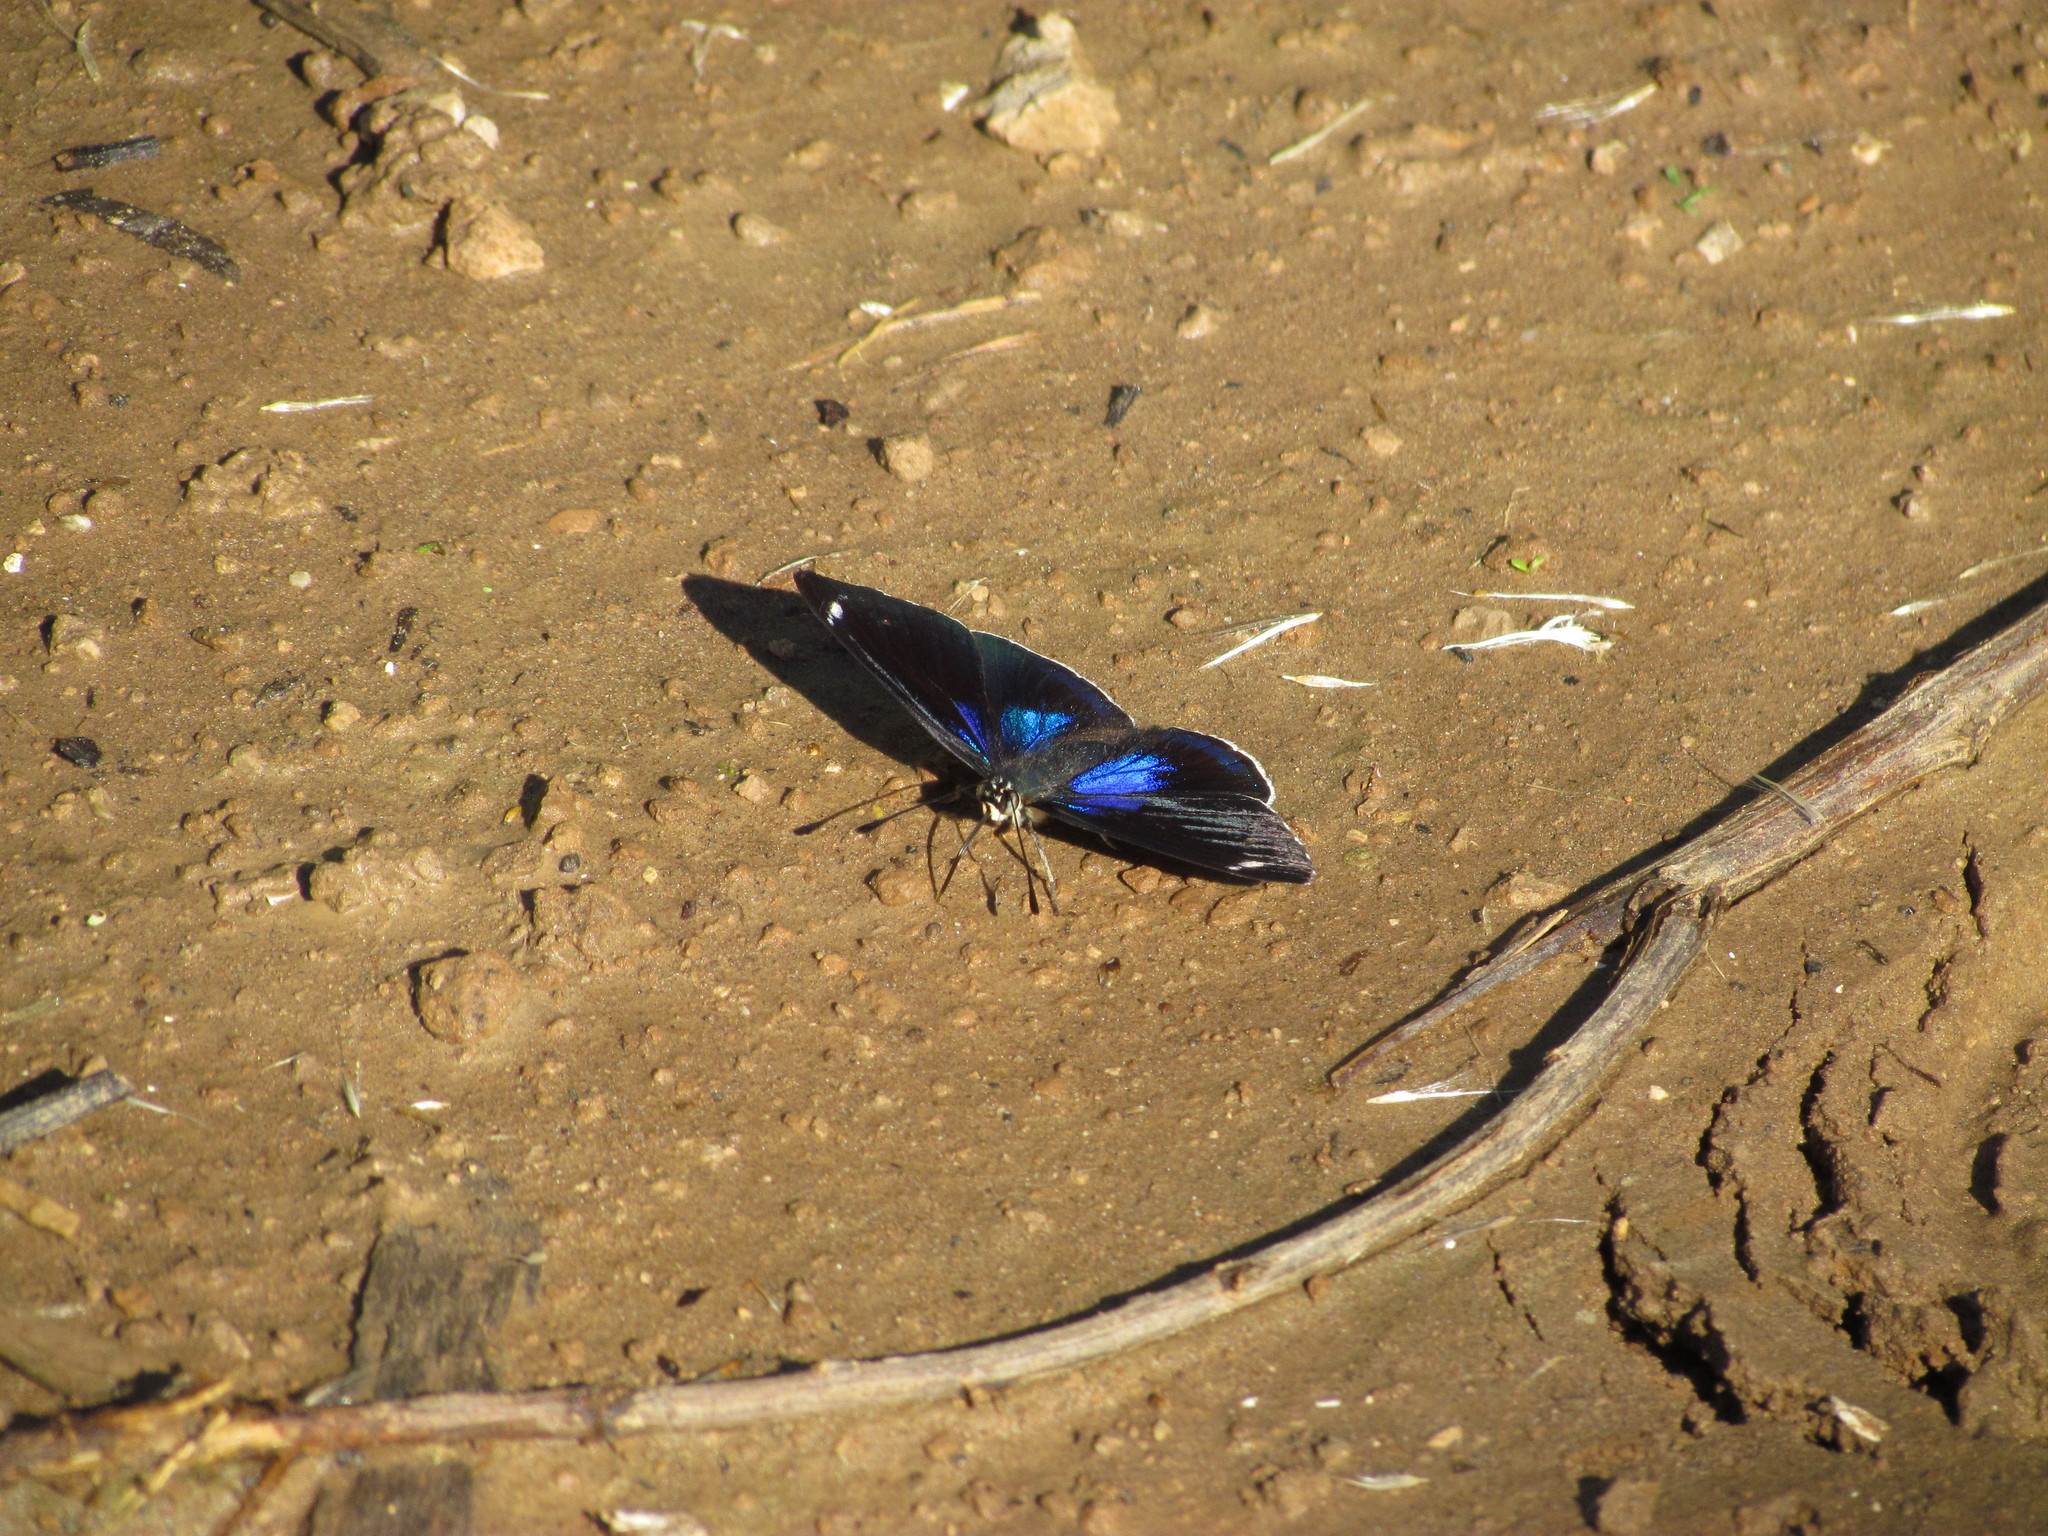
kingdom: Animalia
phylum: Arthropoda
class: Insecta
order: Lepidoptera
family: Nymphalidae
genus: Diaethria
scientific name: Diaethria candrena
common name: Number eighty
